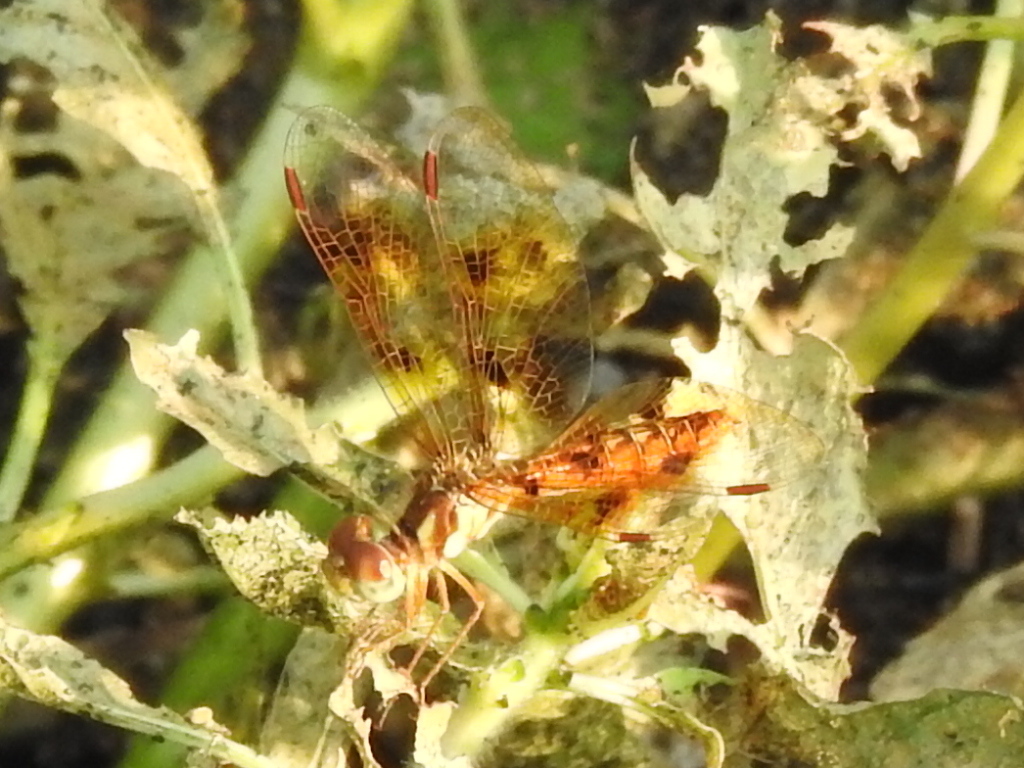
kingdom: Animalia
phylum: Arthropoda
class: Insecta
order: Odonata
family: Libellulidae
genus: Perithemis
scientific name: Perithemis tenera
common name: Eastern amberwing
